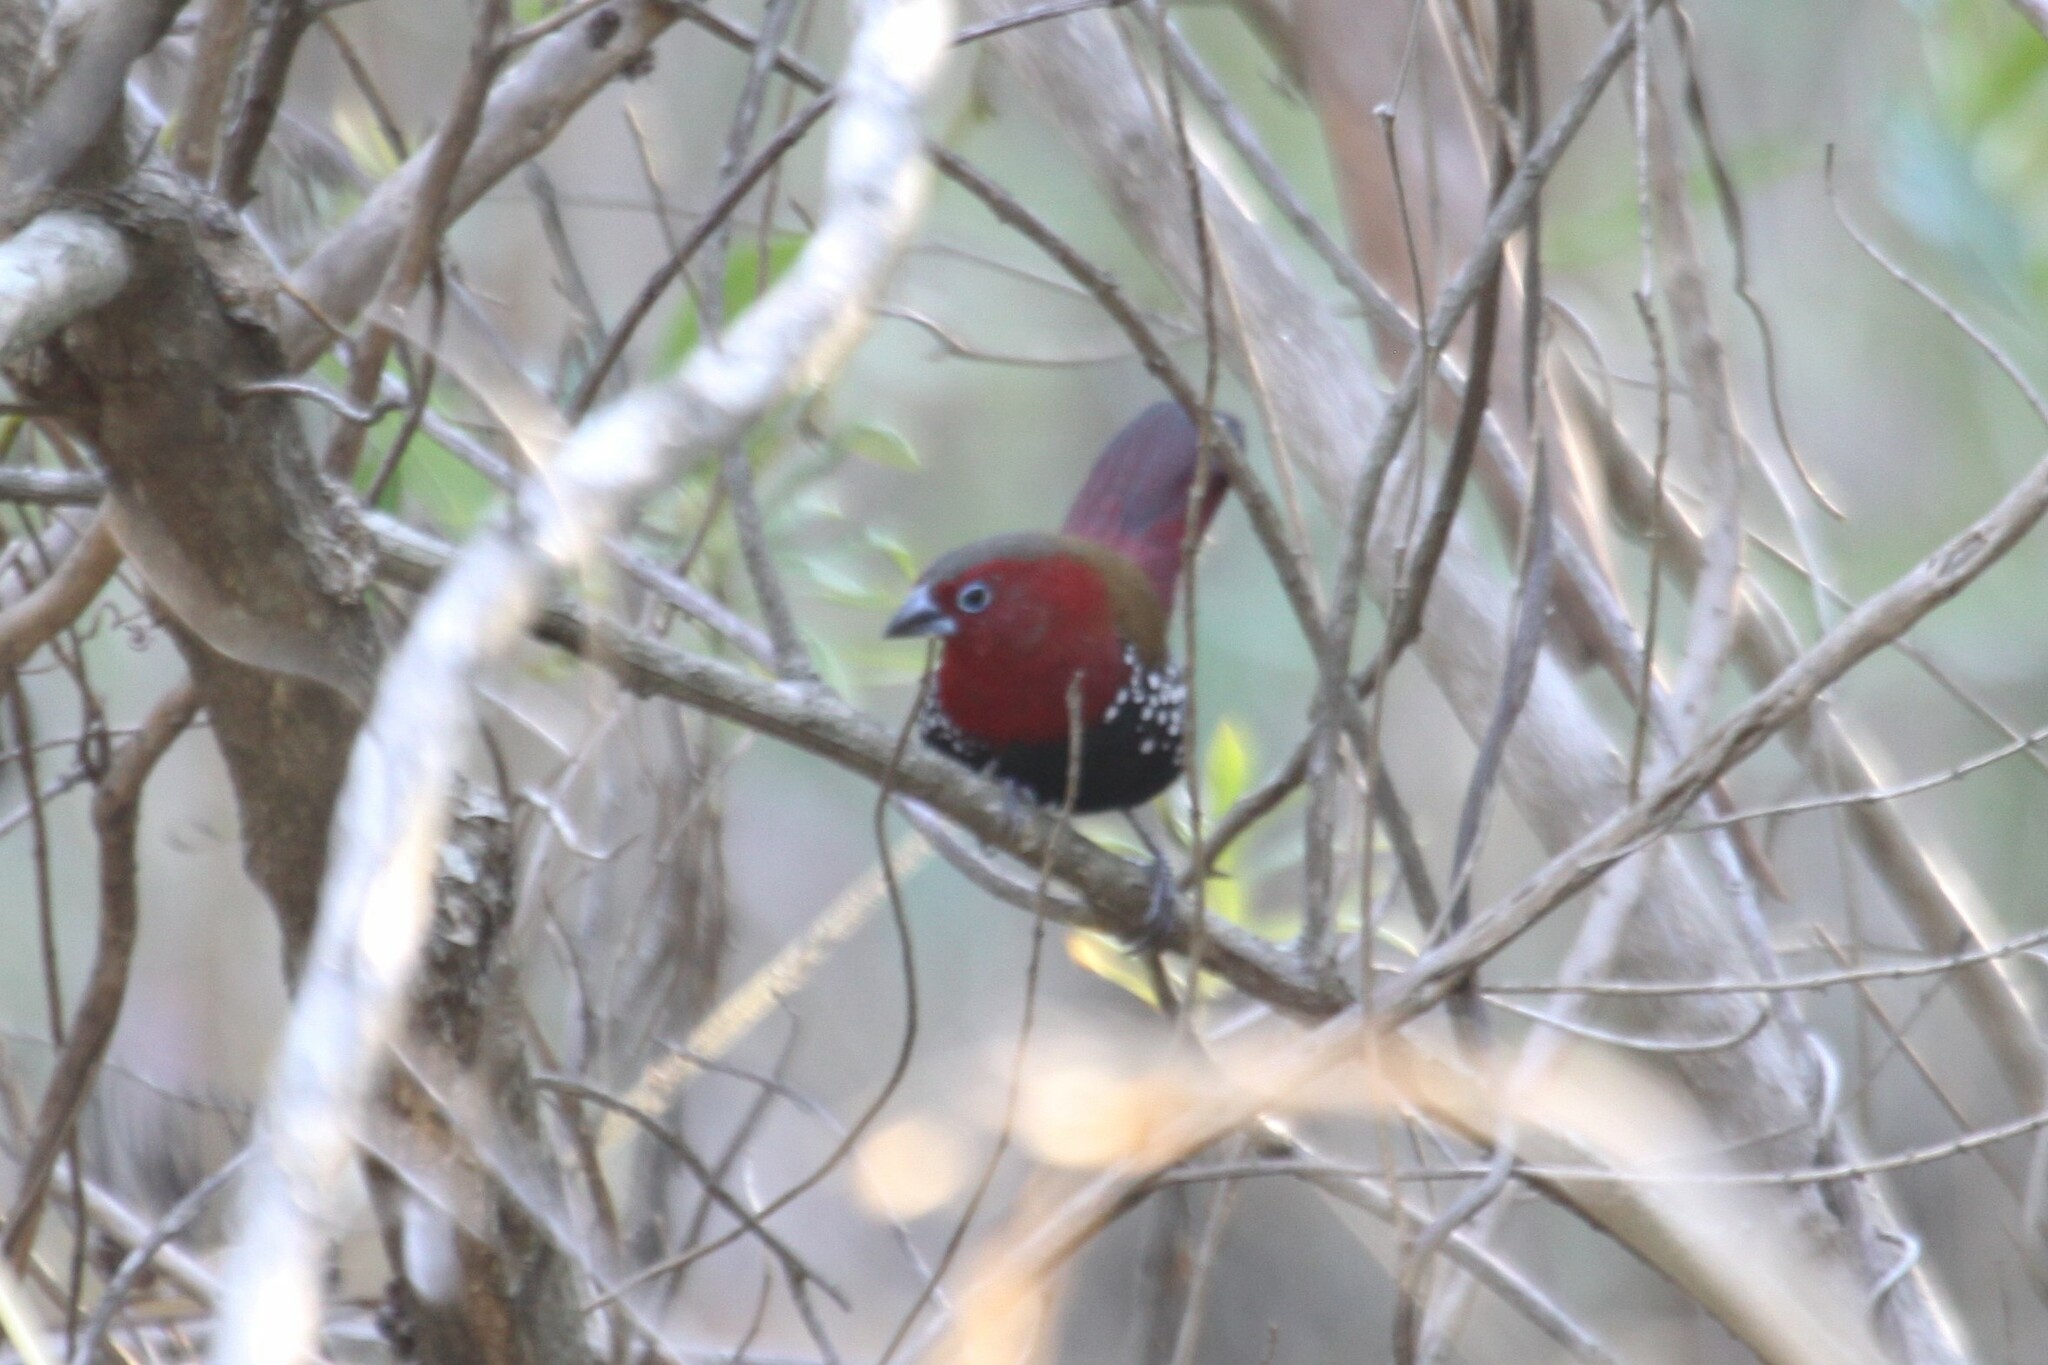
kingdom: Animalia
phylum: Chordata
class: Aves
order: Passeriformes
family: Estrildidae
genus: Hypargos
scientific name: Hypargos niveoguttatus
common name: Red-throated twinspot
